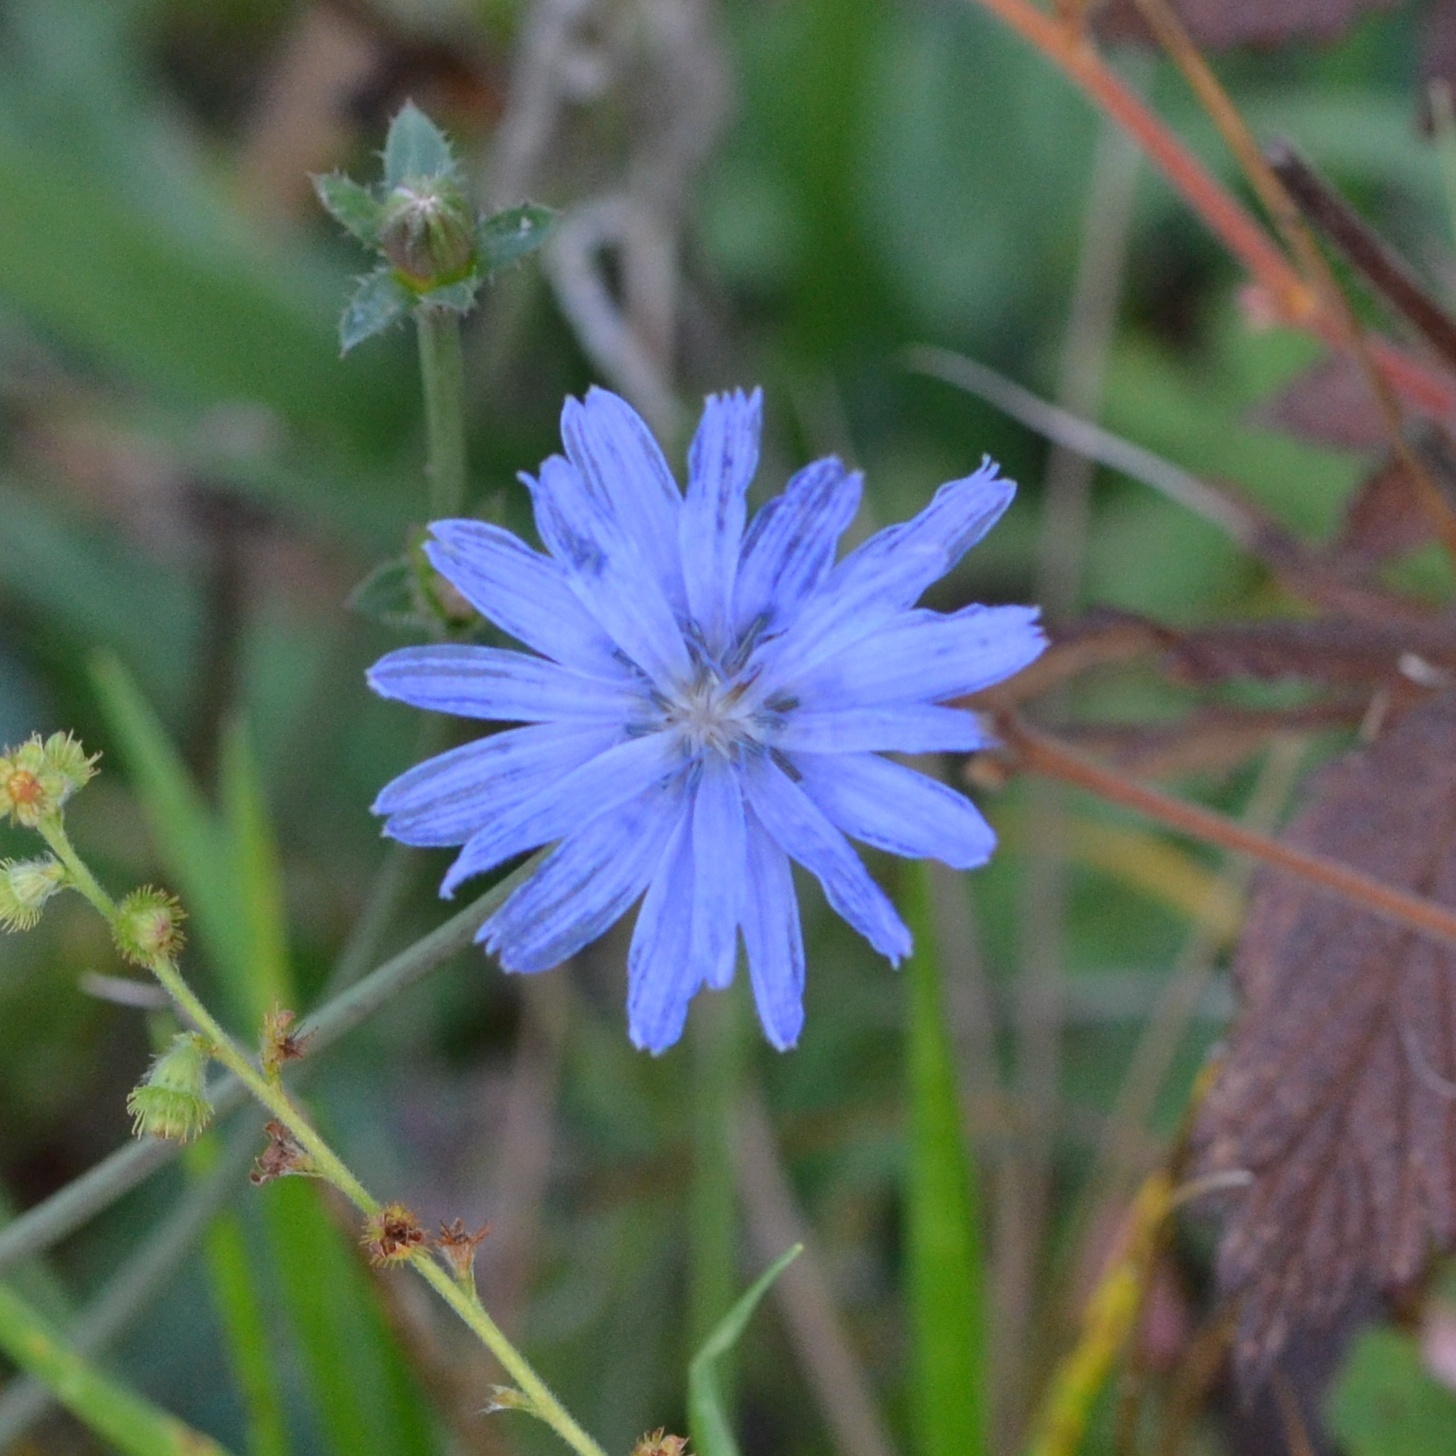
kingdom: Plantae
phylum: Tracheophyta
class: Magnoliopsida
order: Asterales
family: Asteraceae
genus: Cichorium
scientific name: Cichorium intybus
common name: Chicory
